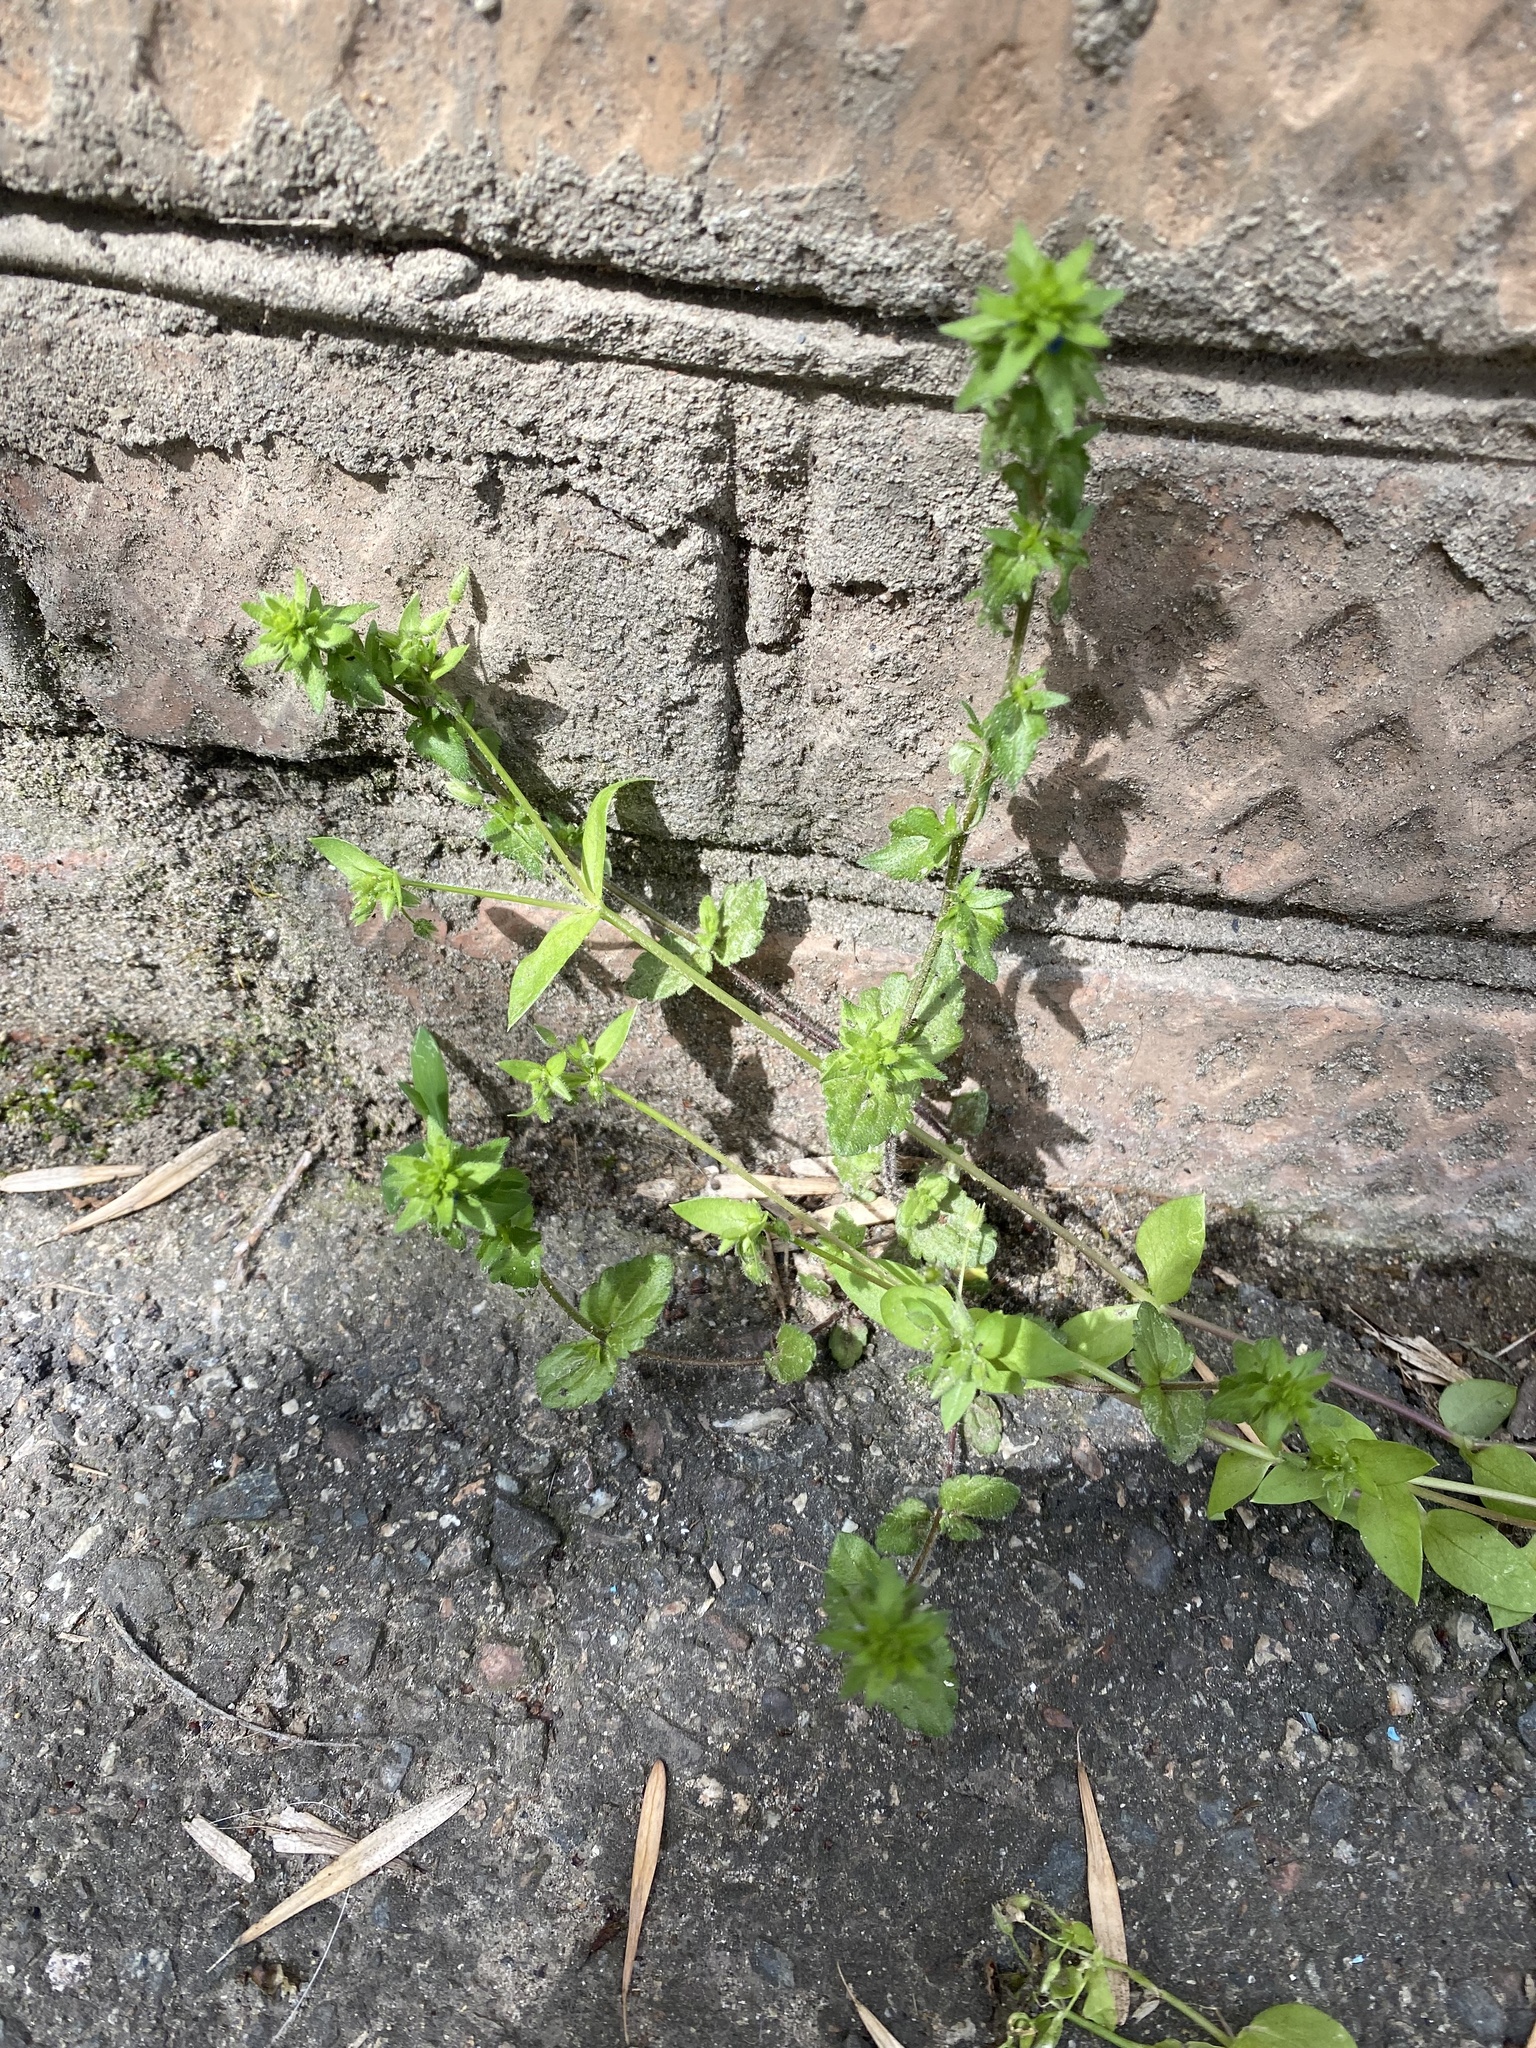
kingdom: Plantae
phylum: Tracheophyta
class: Magnoliopsida
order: Lamiales
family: Plantaginaceae
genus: Veronica
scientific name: Veronica arvensis
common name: Corn speedwell
